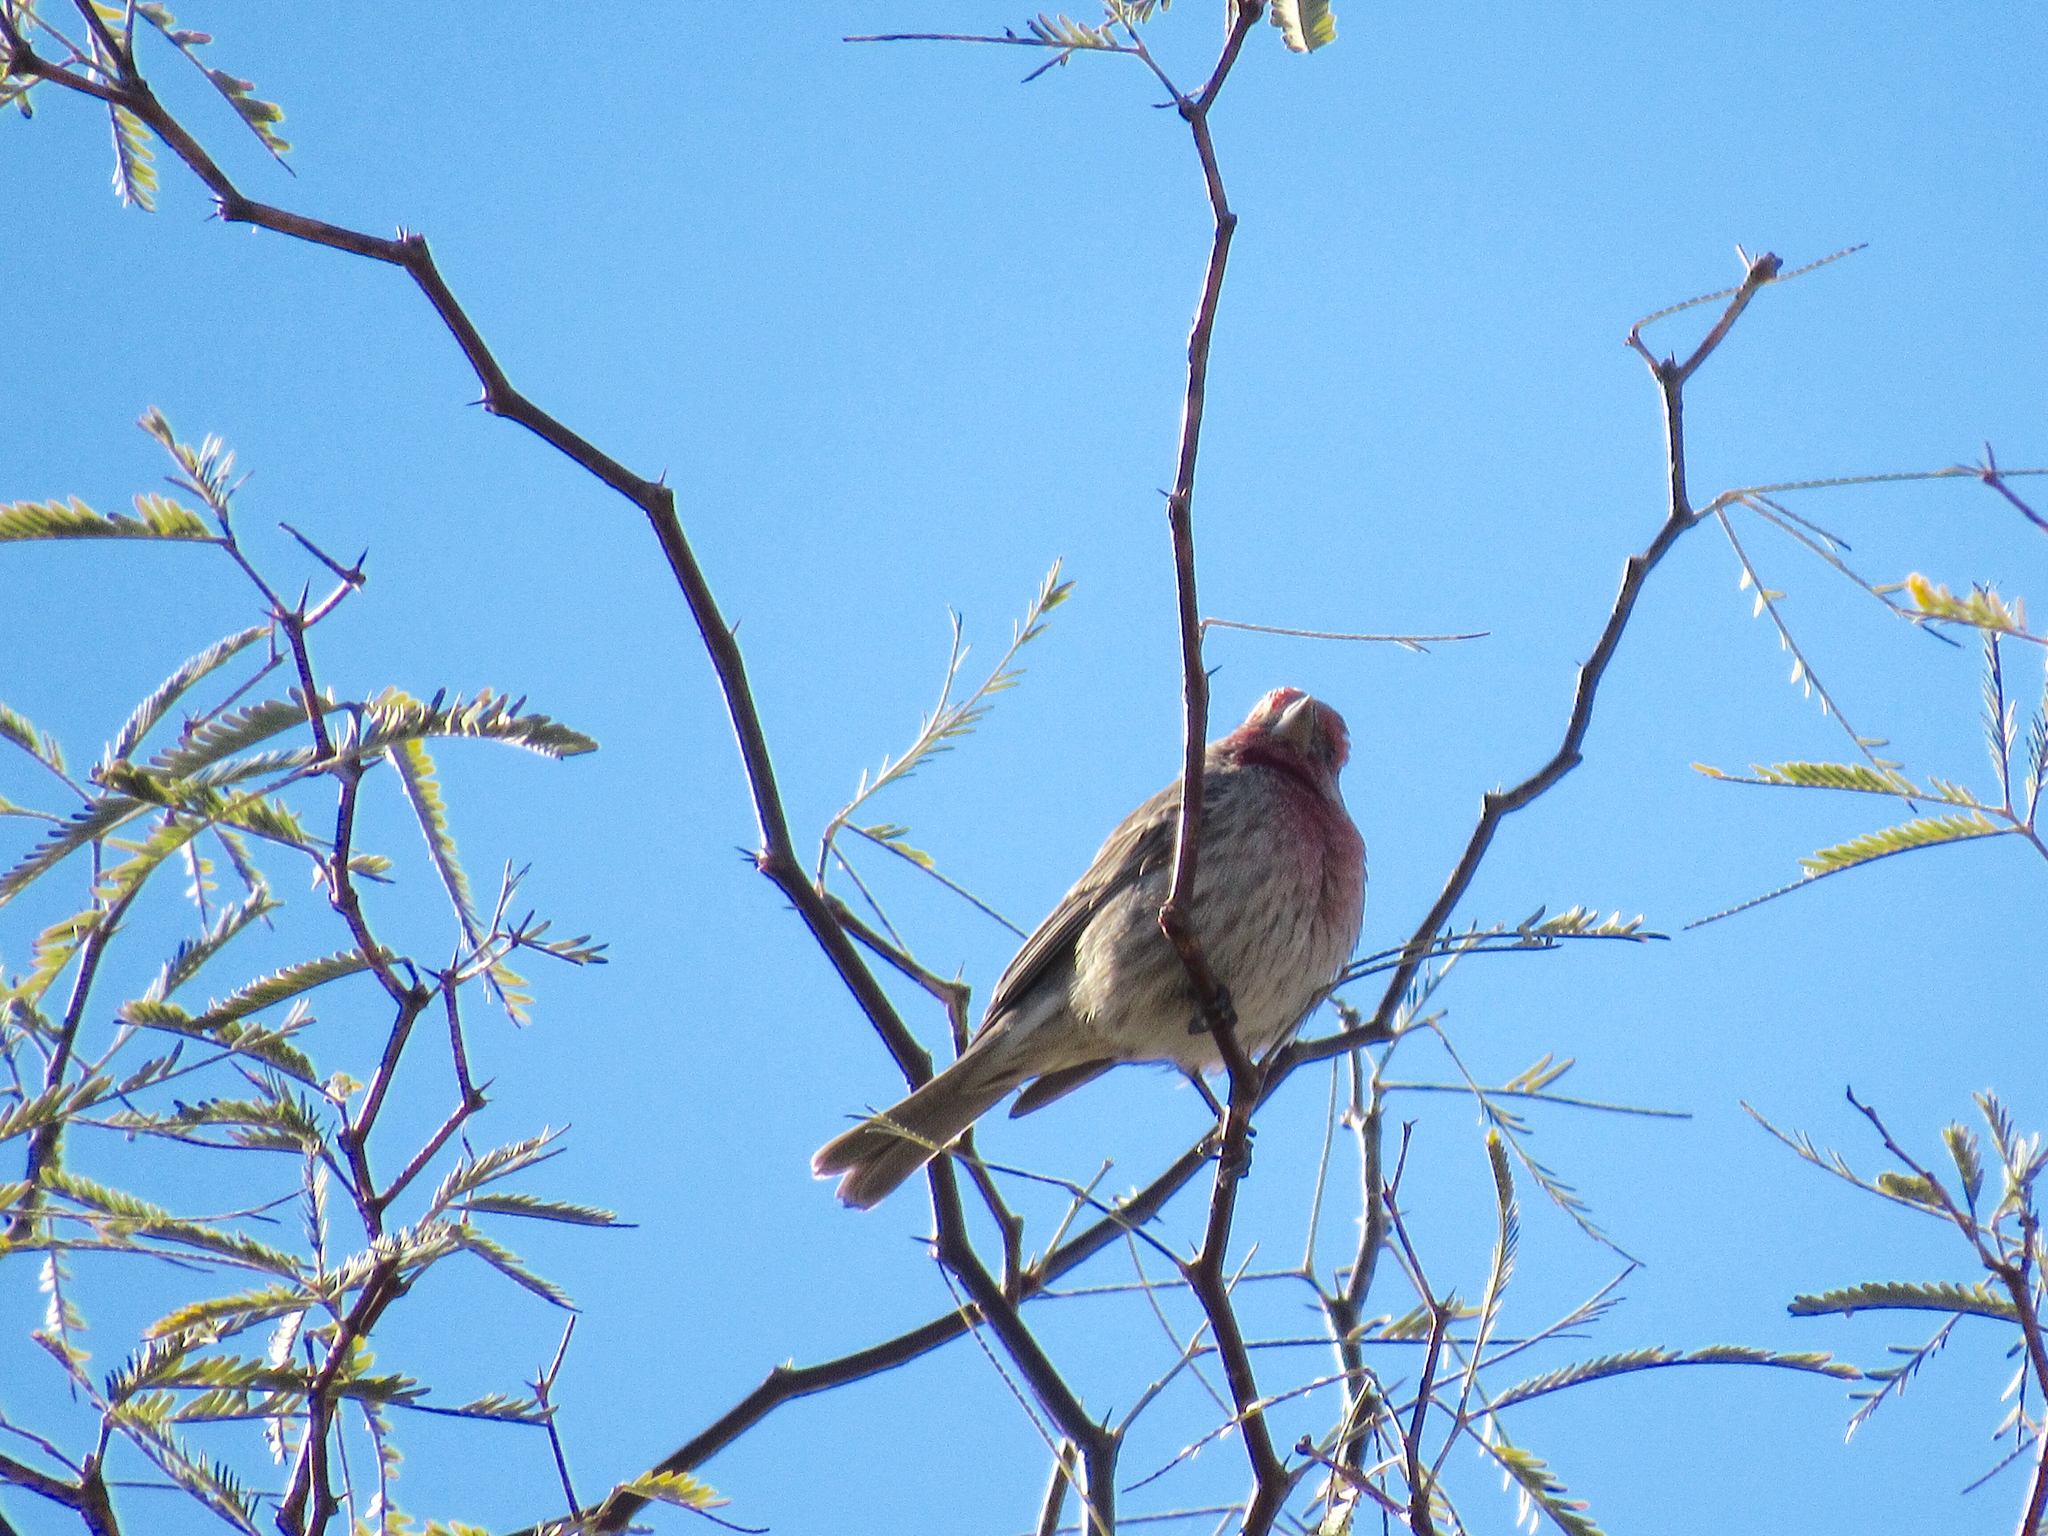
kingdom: Animalia
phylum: Chordata
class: Aves
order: Passeriformes
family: Fringillidae
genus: Haemorhous
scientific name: Haemorhous mexicanus
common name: House finch
